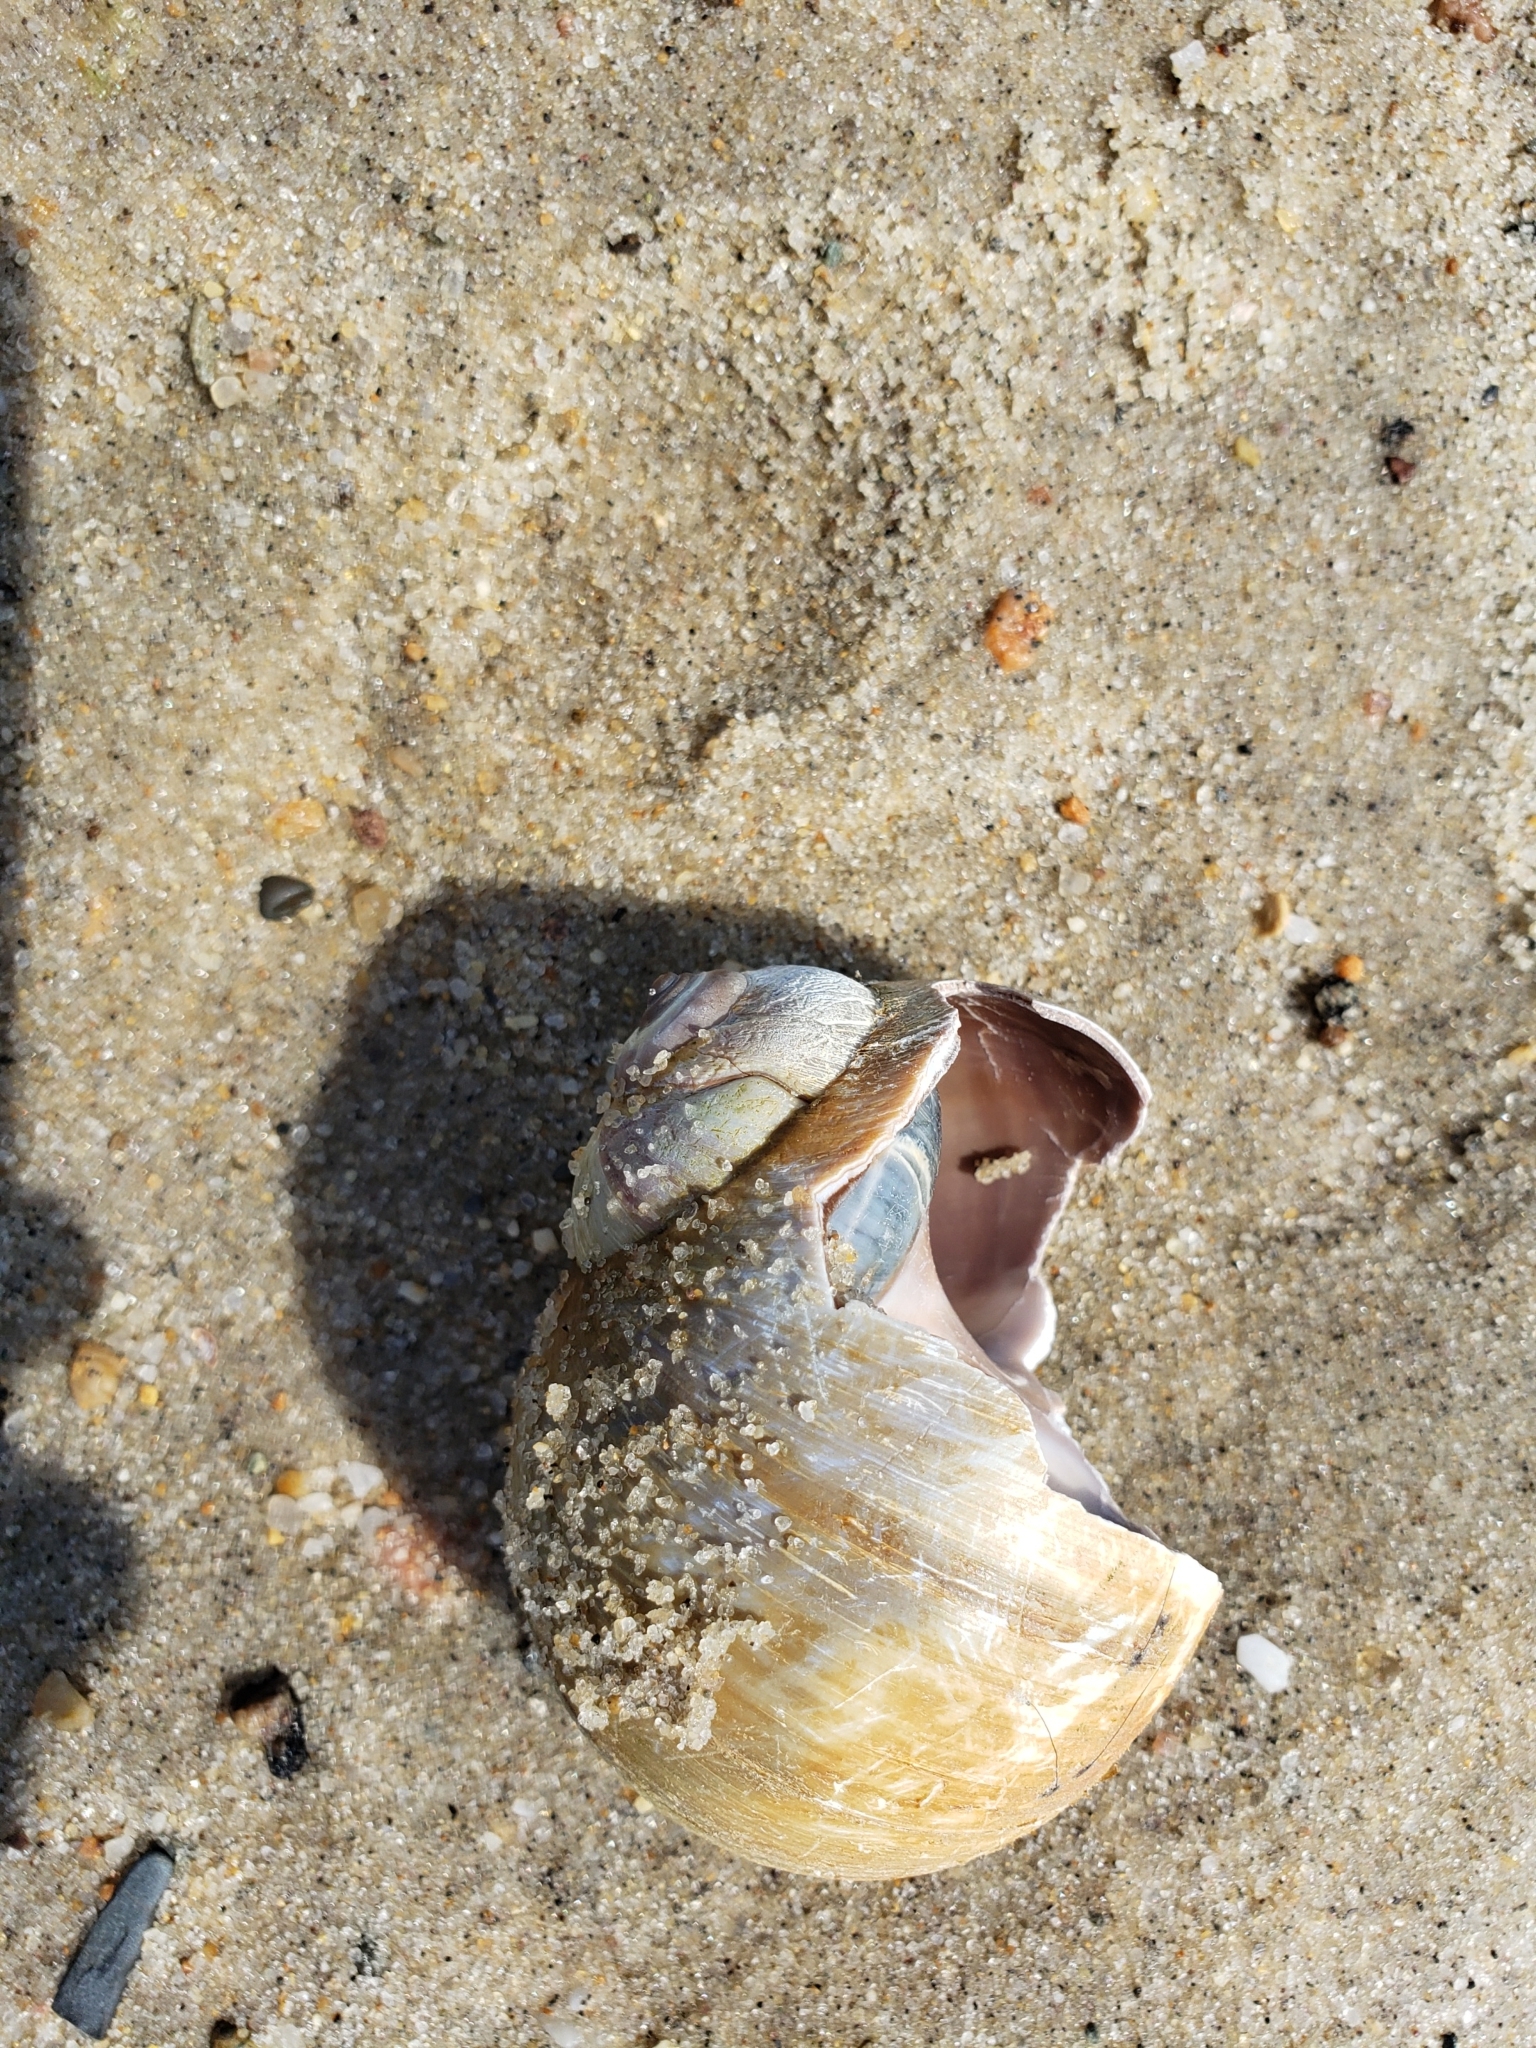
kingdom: Animalia
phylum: Mollusca
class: Gastropoda
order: Littorinimorpha
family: Naticidae
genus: Euspira
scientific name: Euspira heros
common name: Common northern moonsnail
